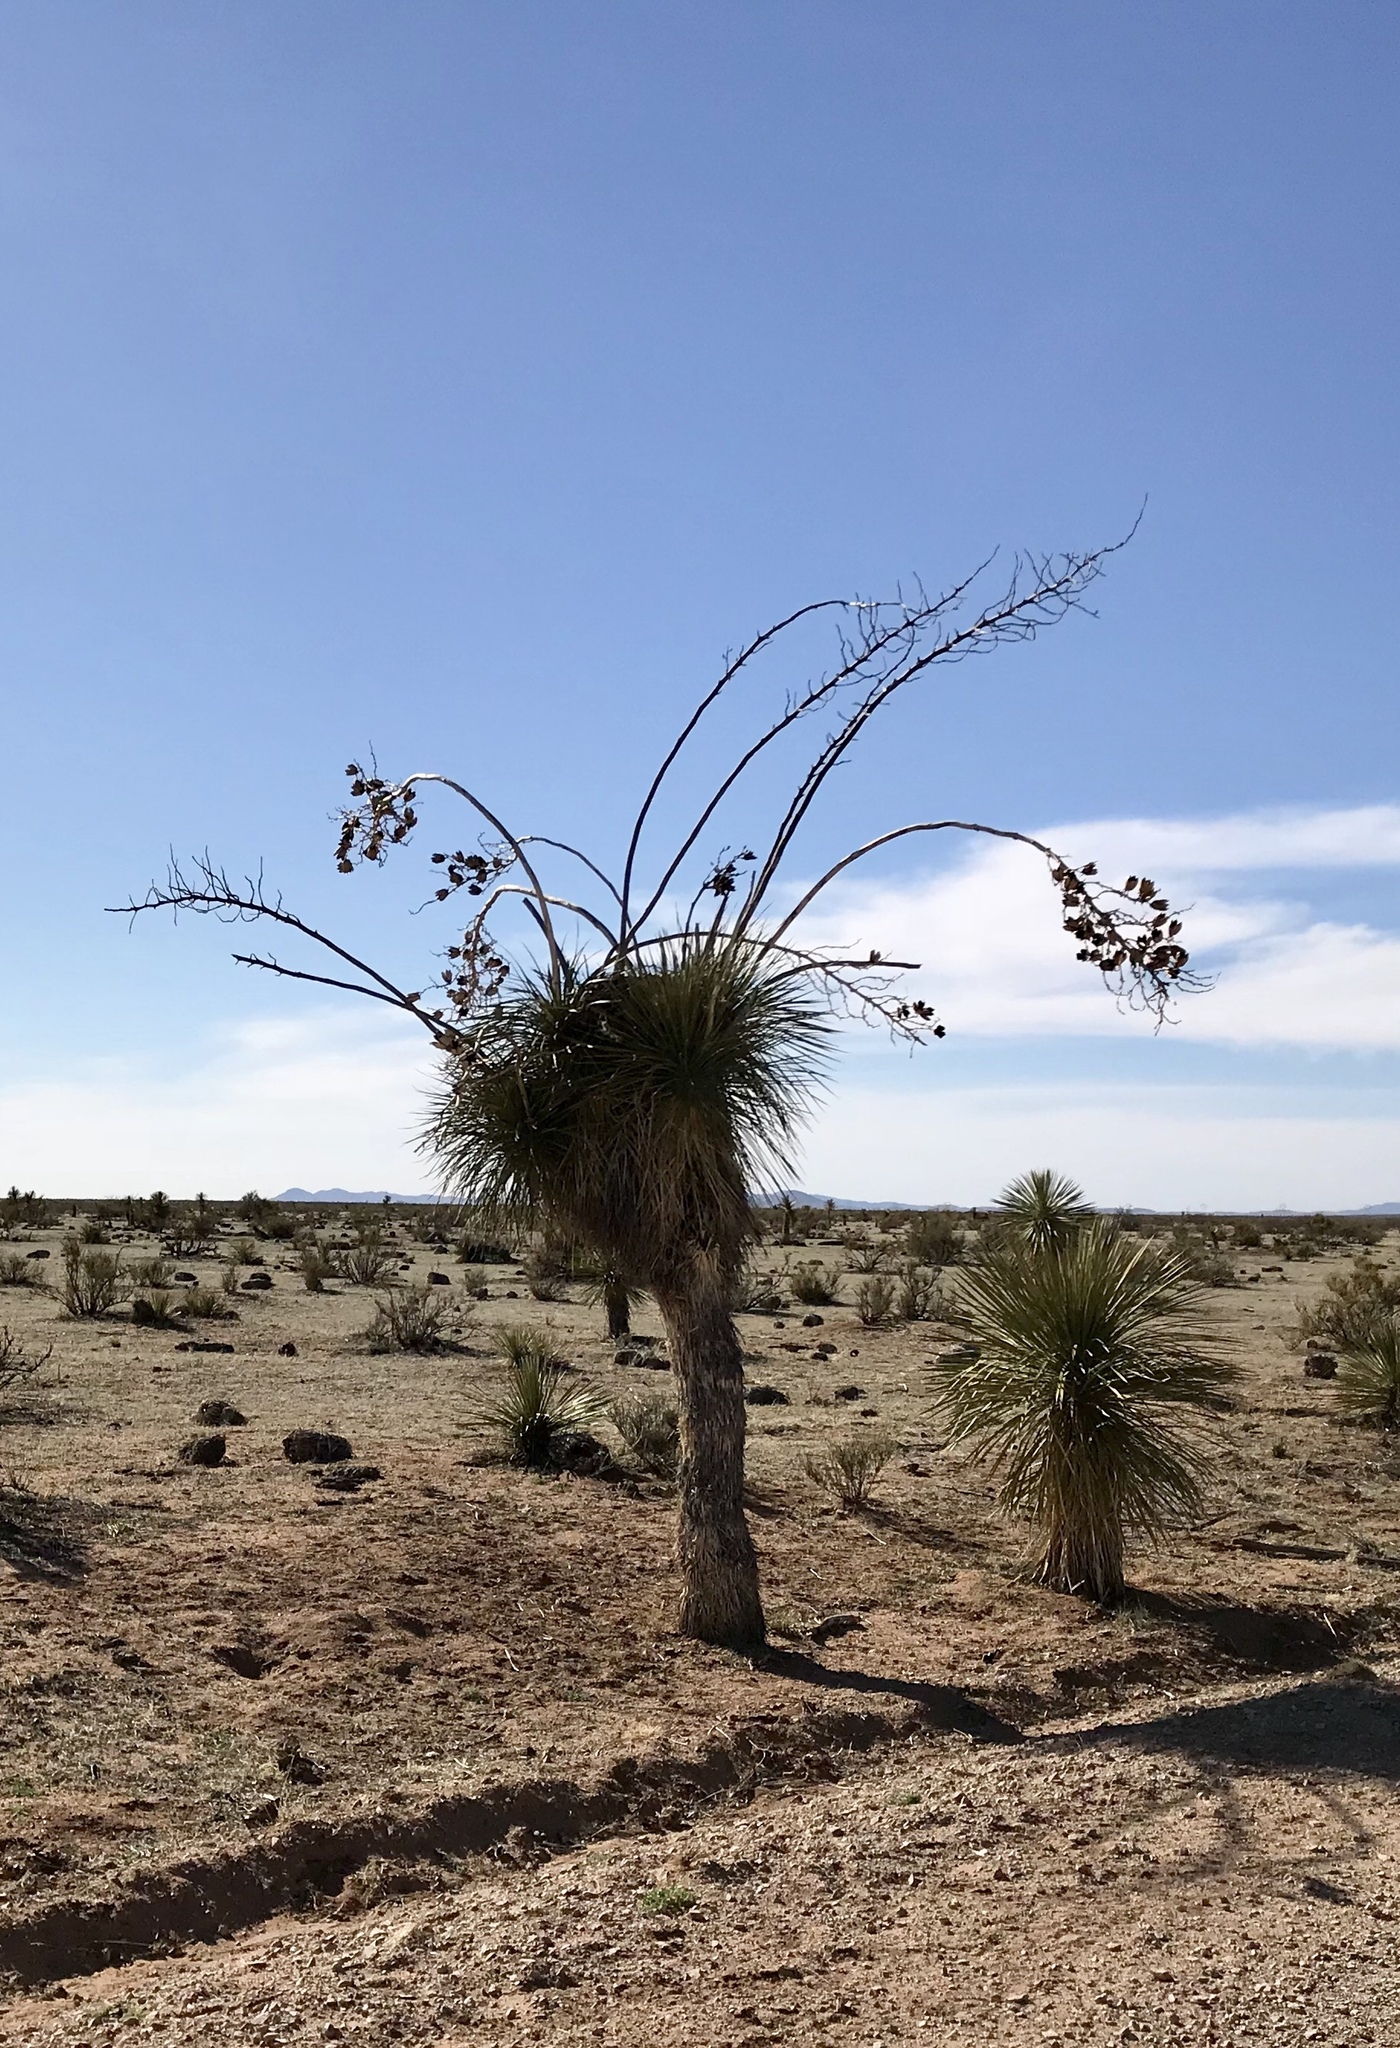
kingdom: Plantae
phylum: Tracheophyta
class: Liliopsida
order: Asparagales
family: Asparagaceae
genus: Yucca
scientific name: Yucca elata
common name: Palmella
